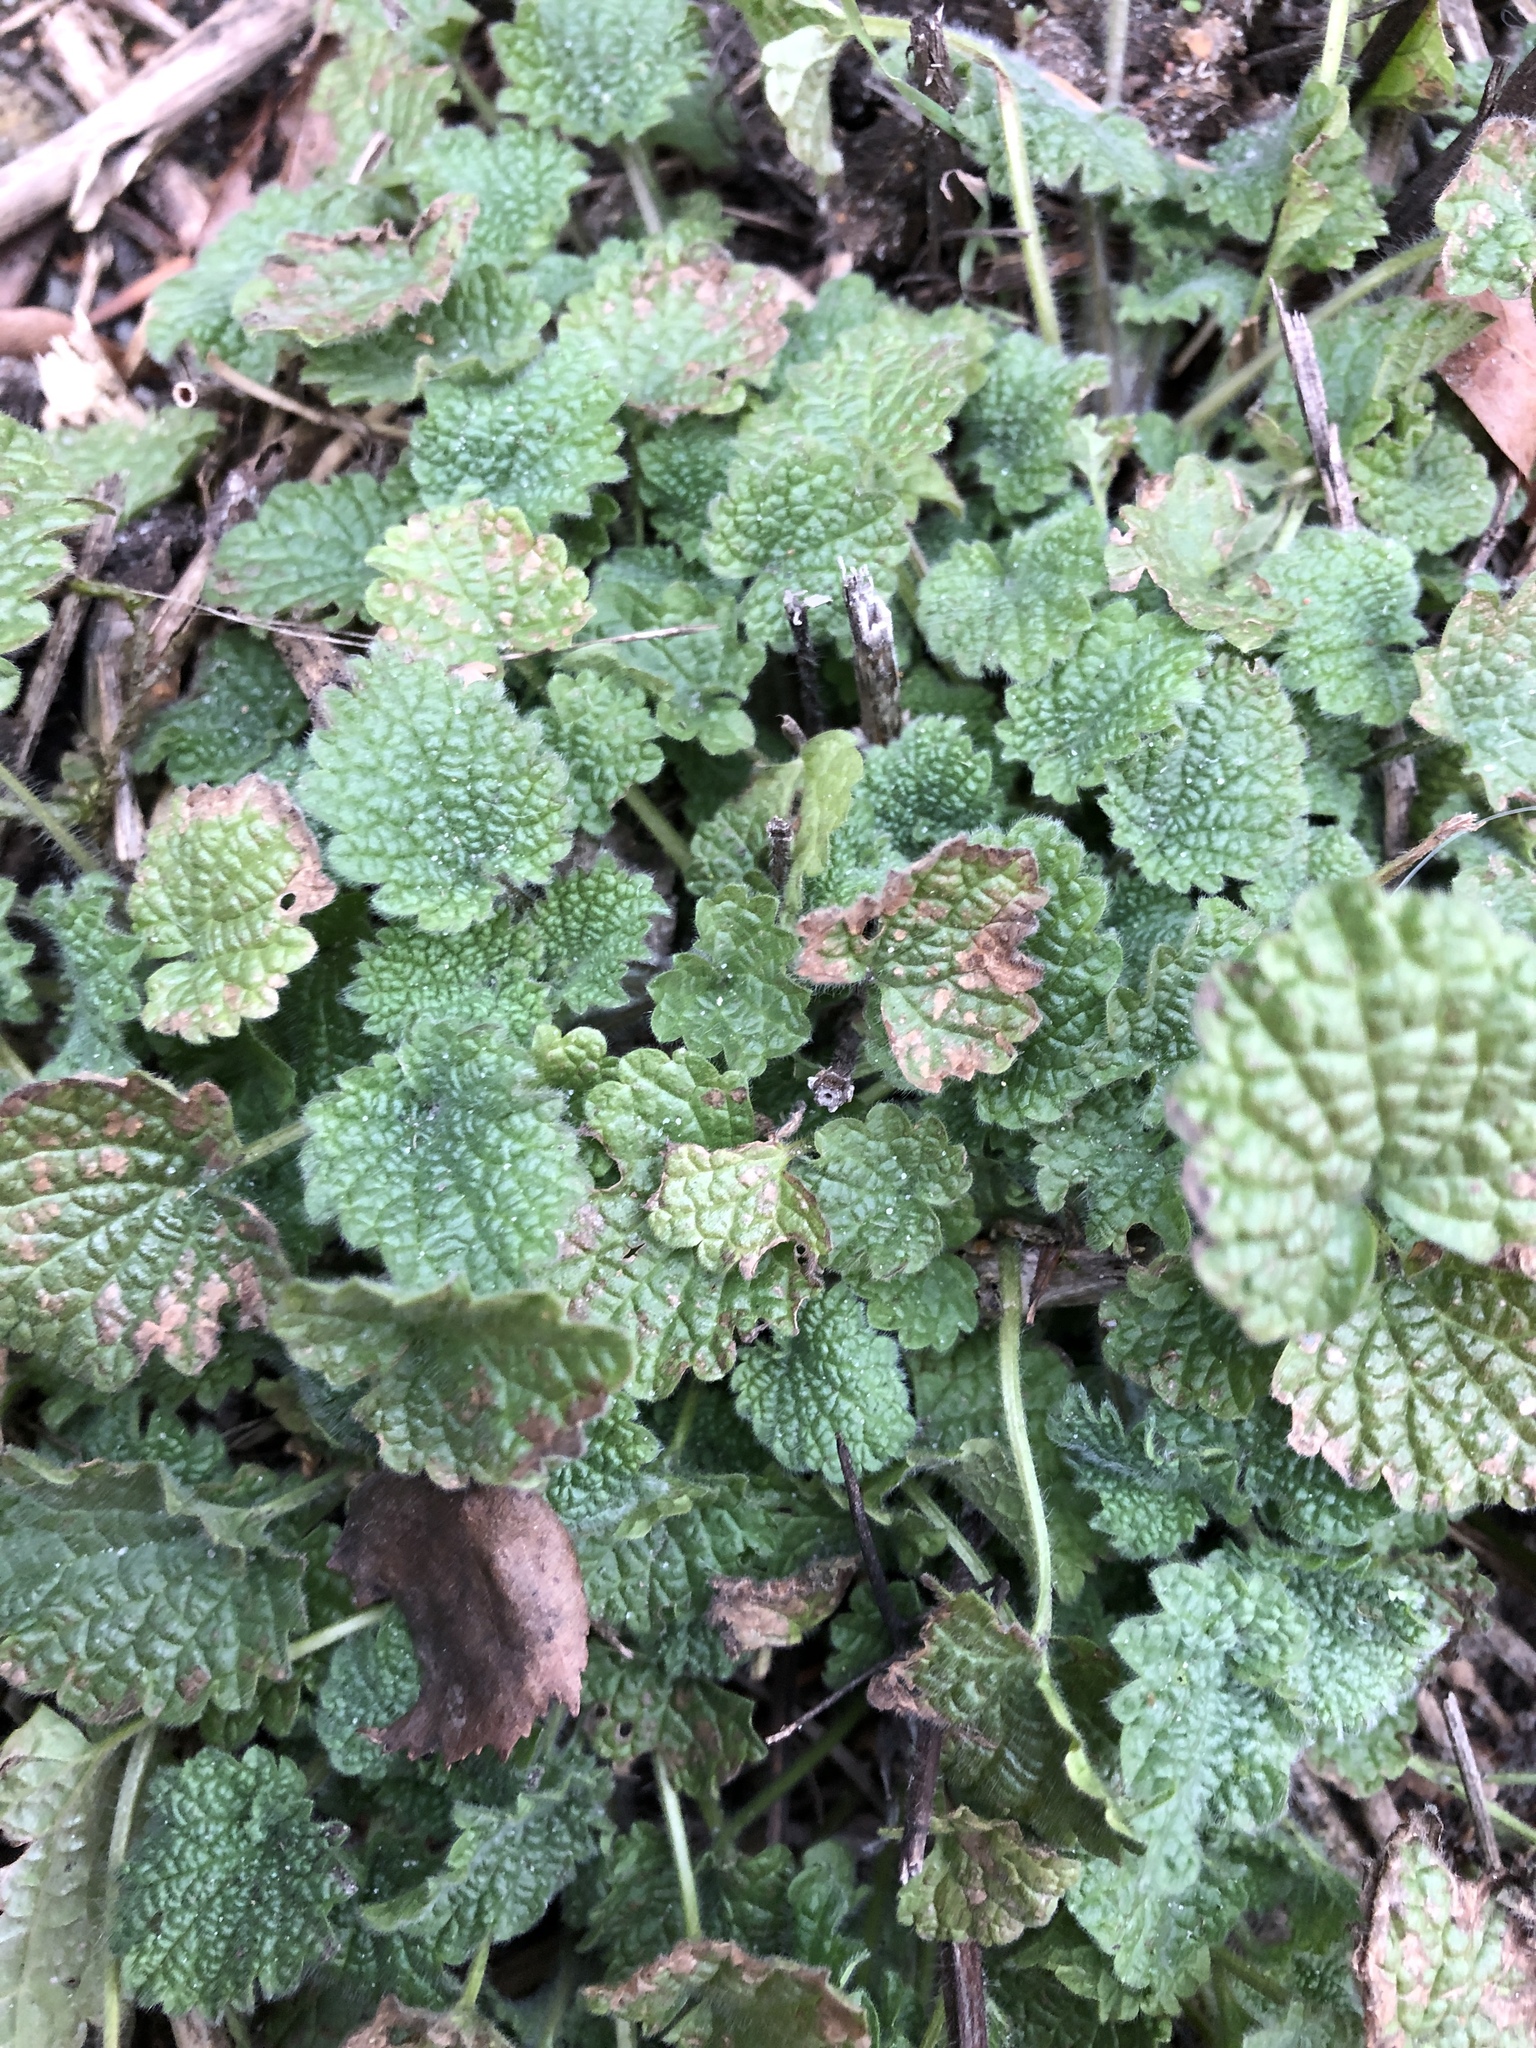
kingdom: Plantae
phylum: Tracheophyta
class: Magnoliopsida
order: Lamiales
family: Lamiaceae
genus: Ballota
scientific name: Ballota nigra
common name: Black horehound
